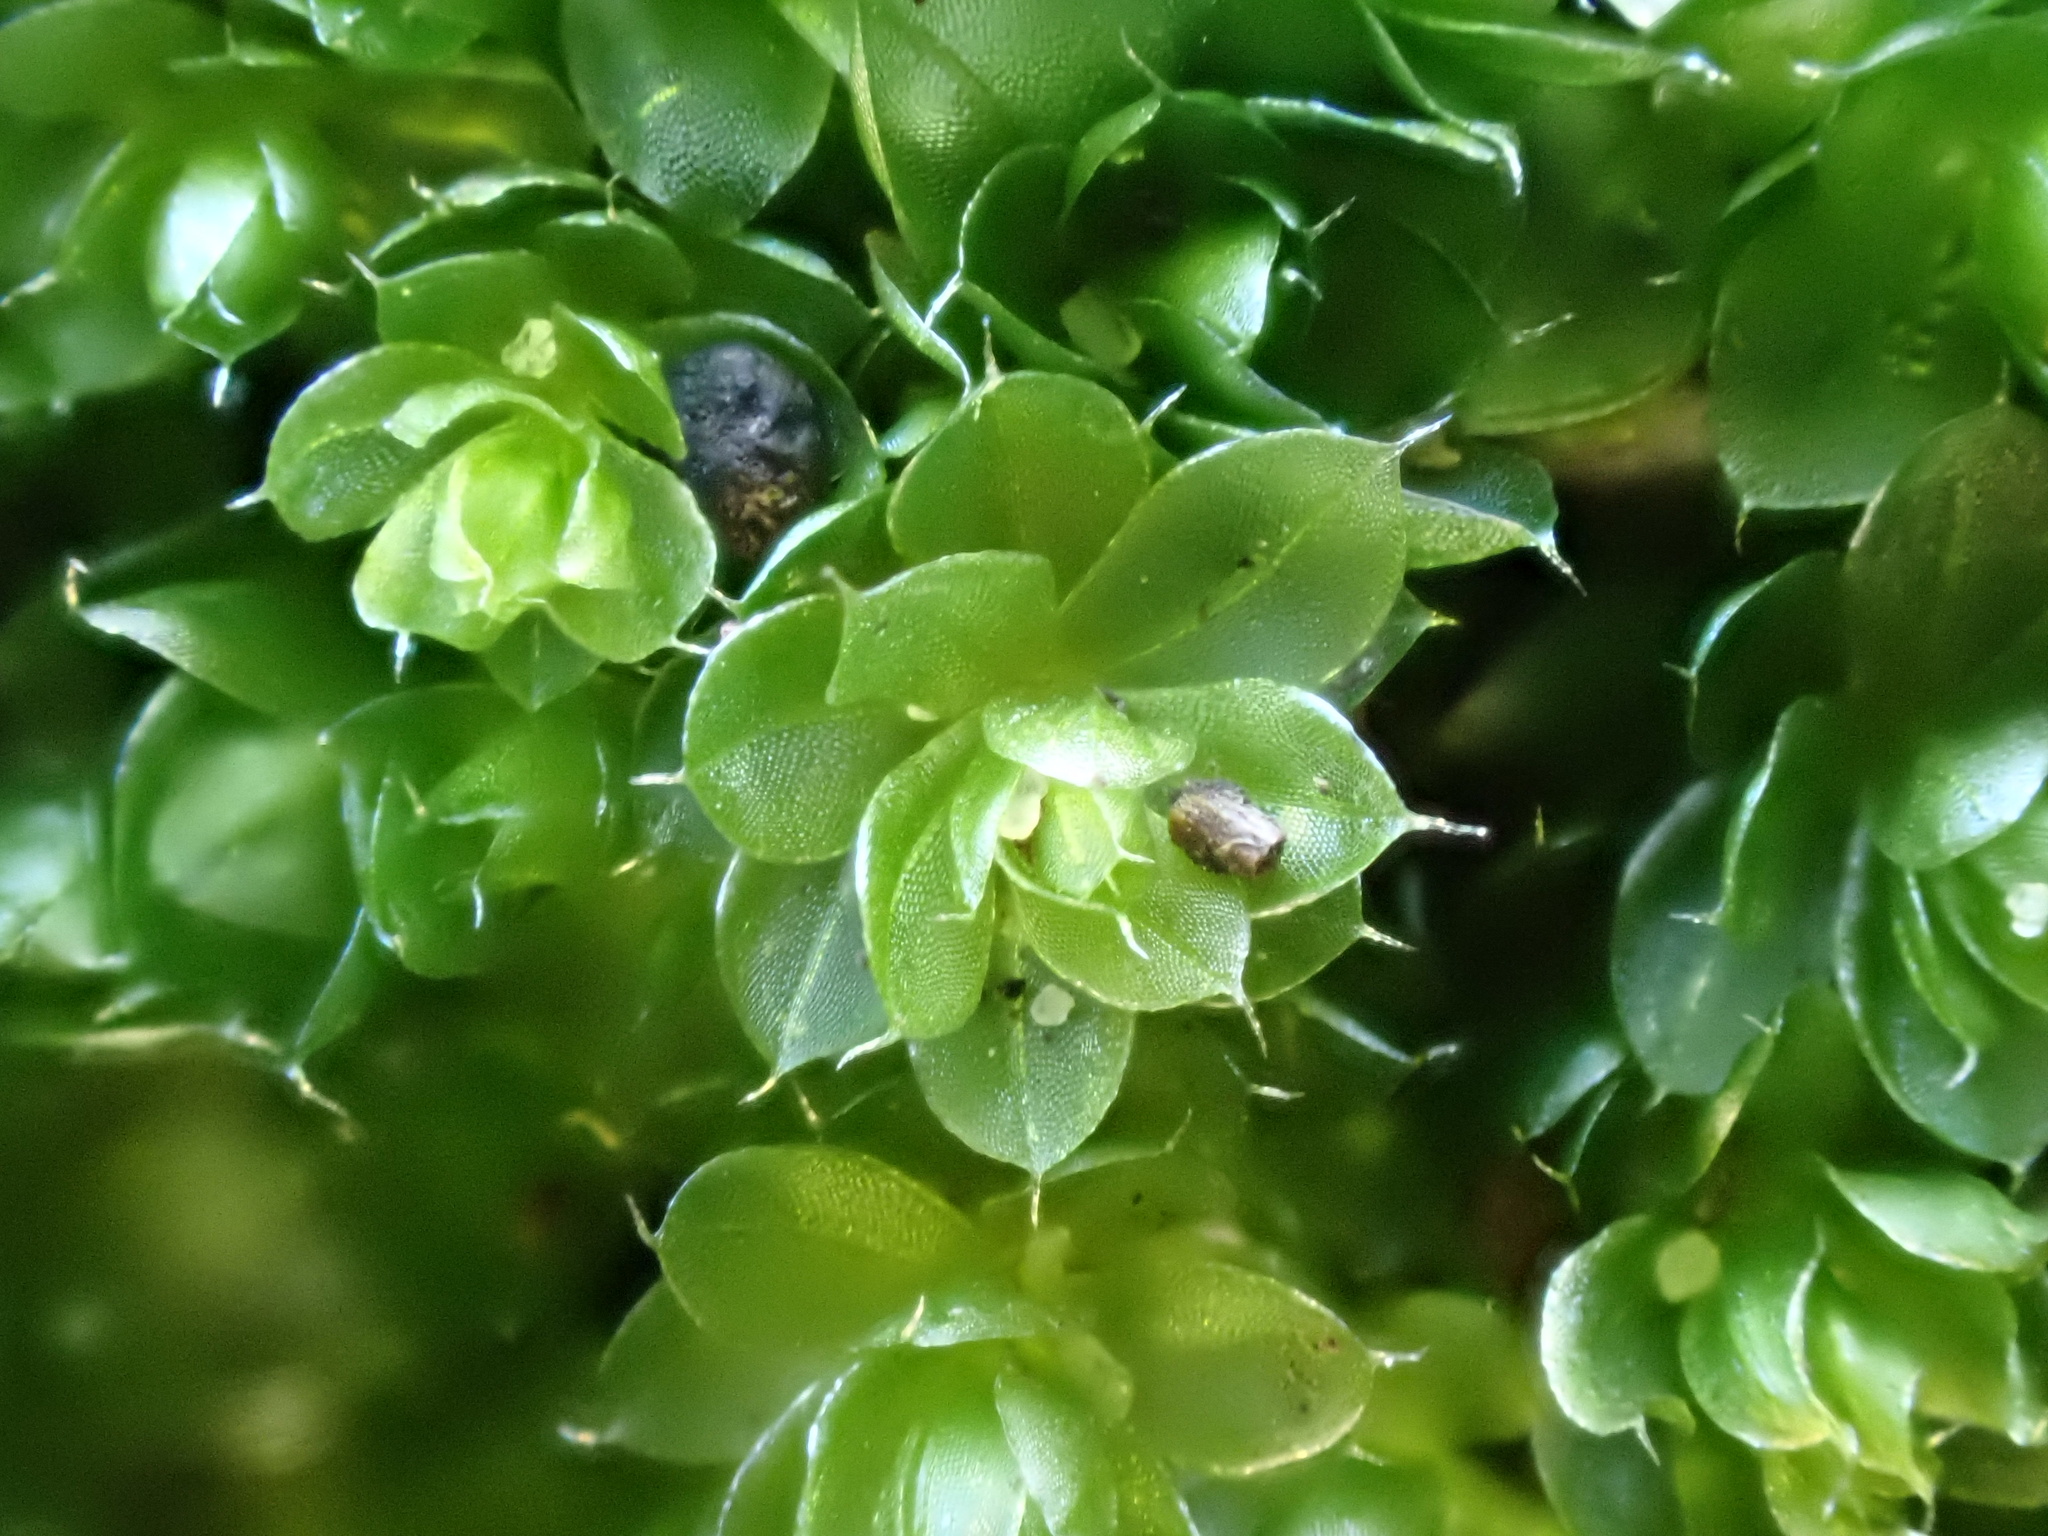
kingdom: Plantae
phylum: Bryophyta
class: Bryopsida
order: Bryales
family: Bryaceae
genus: Rosulabryum
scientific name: Rosulabryum capillare
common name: Capillary thread-moss
